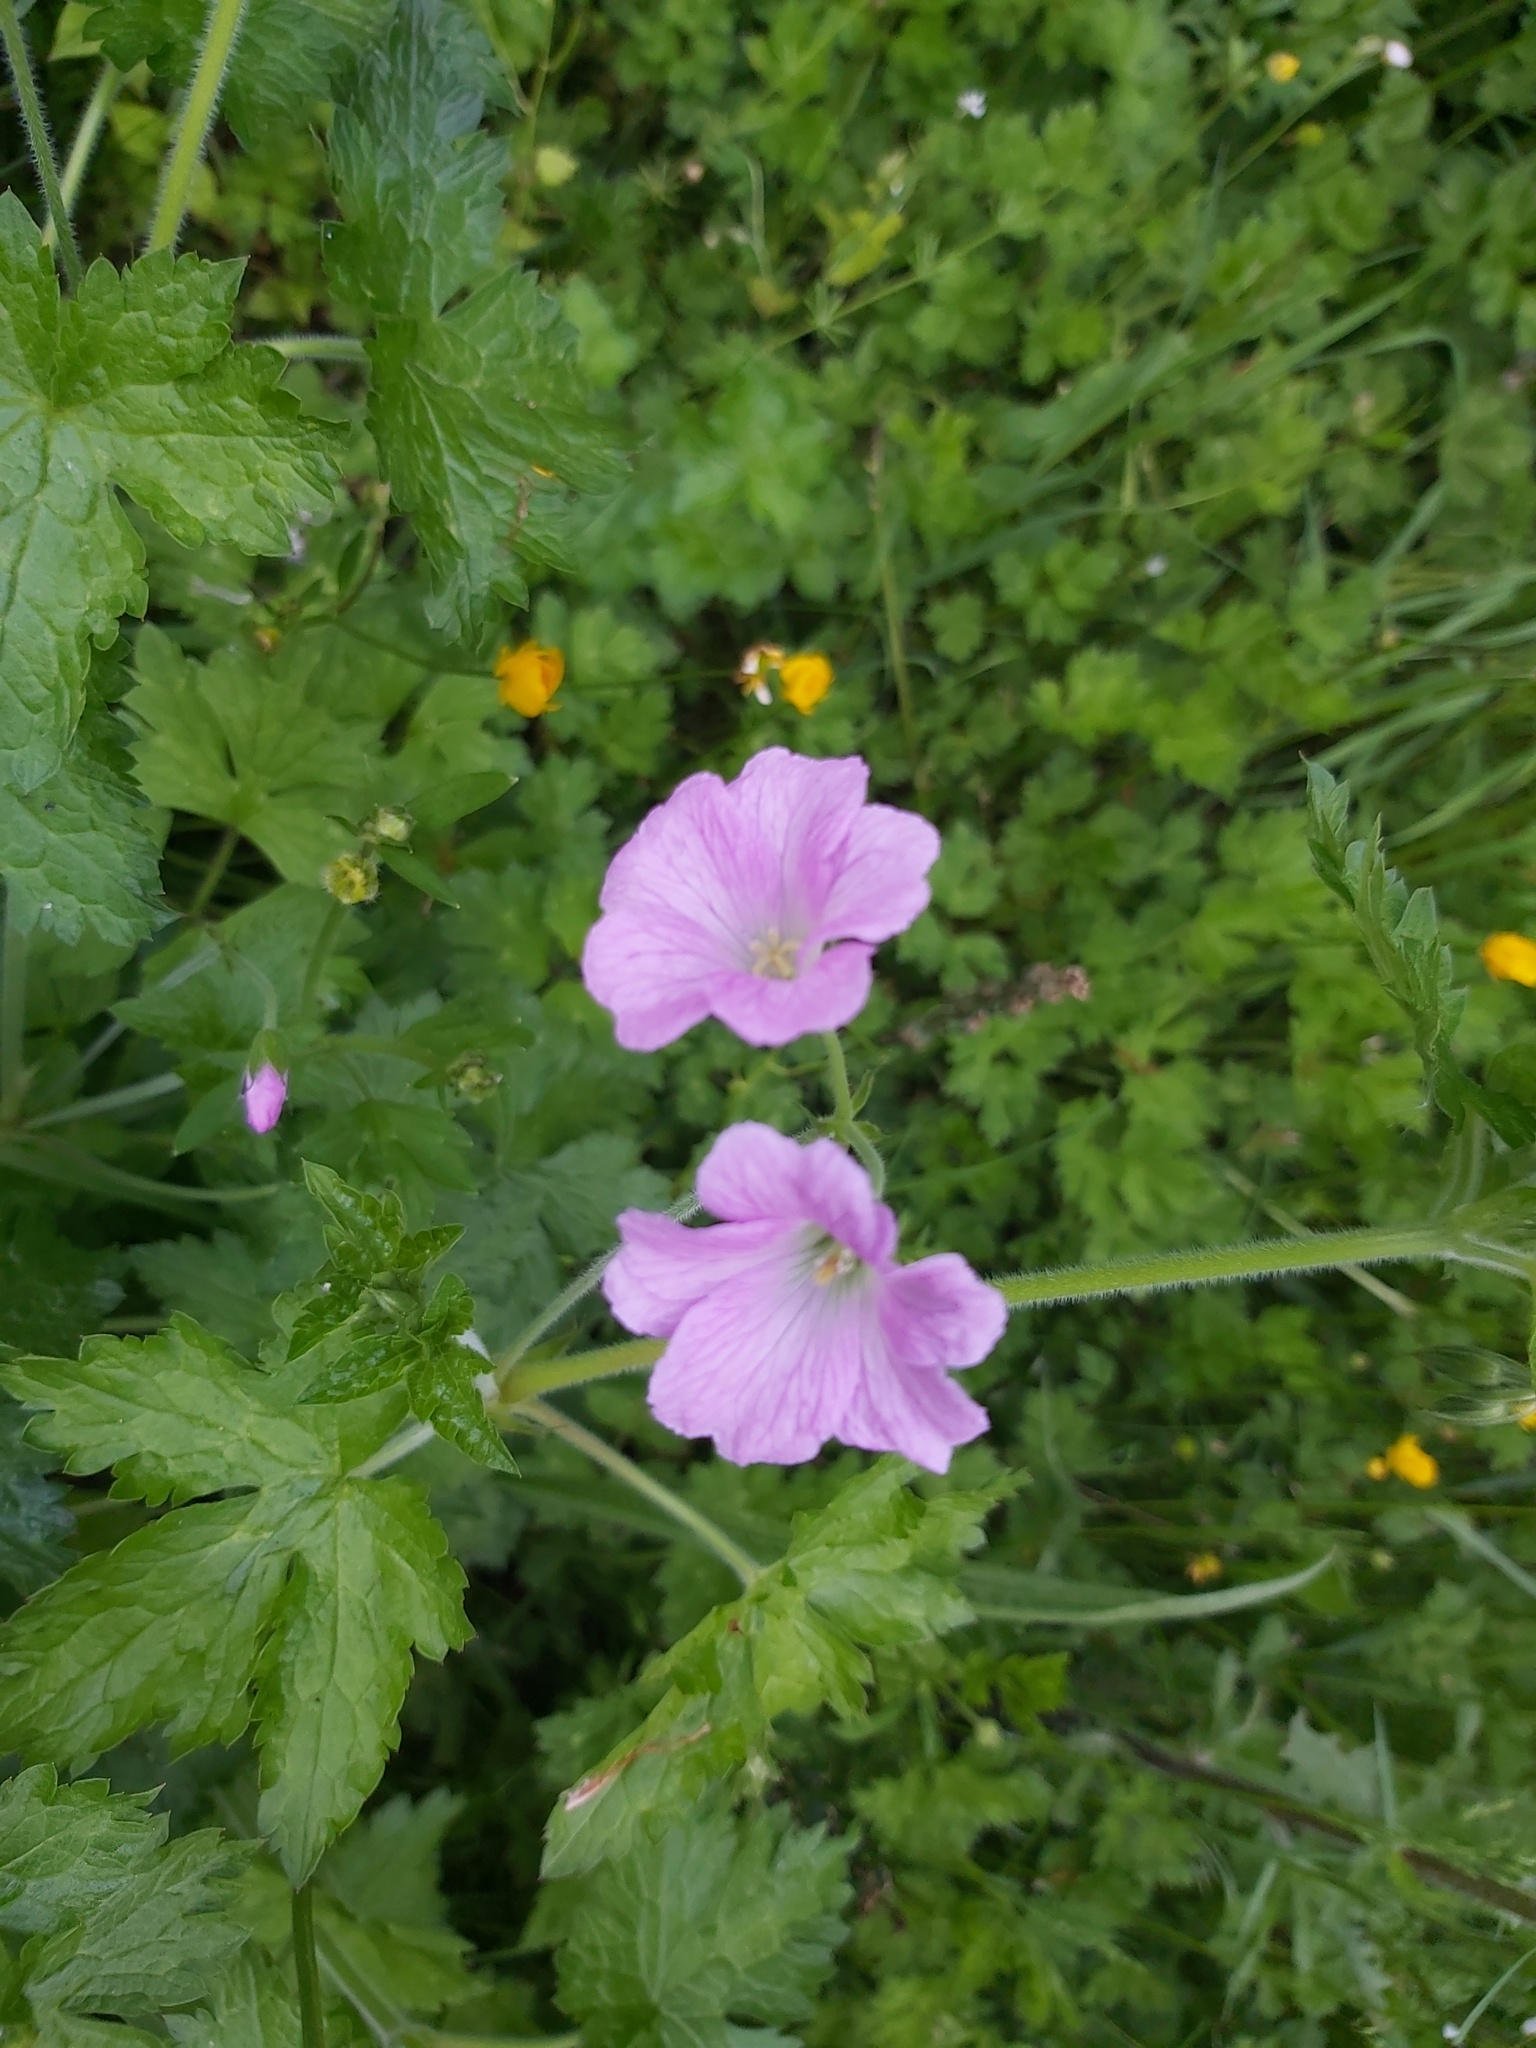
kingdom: Plantae
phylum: Tracheophyta
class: Magnoliopsida
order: Geraniales
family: Geraniaceae
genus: Geranium
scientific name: Geranium oxonianum
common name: Druce's crane's-bill
